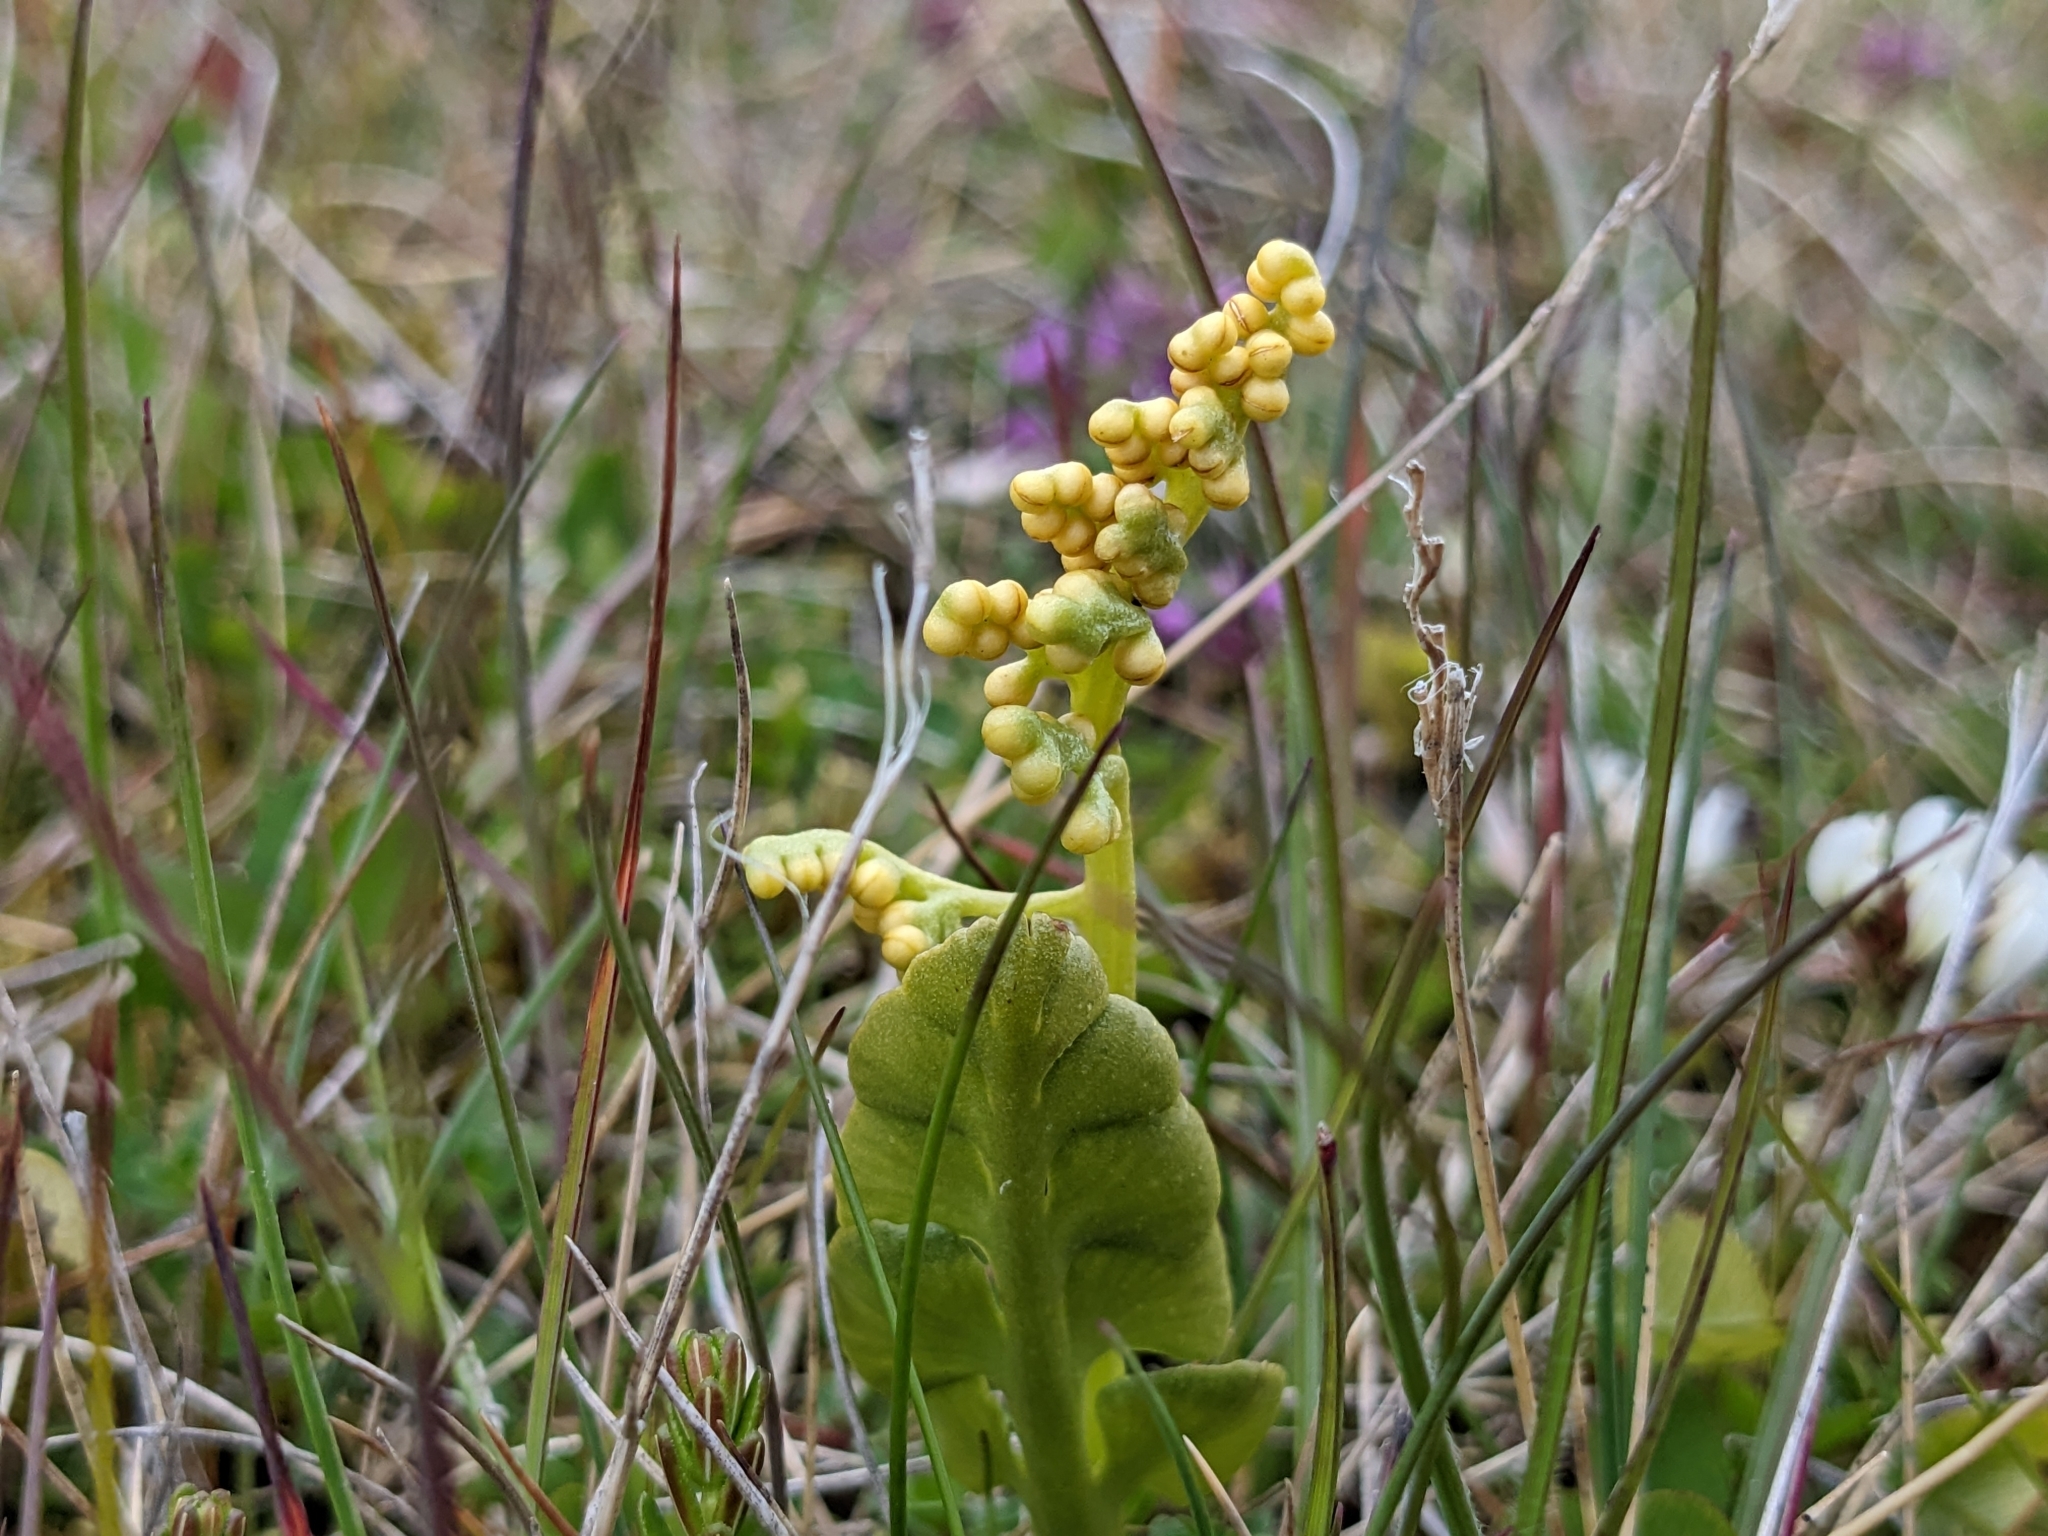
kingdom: Plantae
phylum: Tracheophyta
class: Polypodiopsida
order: Ophioglossales
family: Ophioglossaceae
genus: Botrychium
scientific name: Botrychium lunaria
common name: Moonwort
